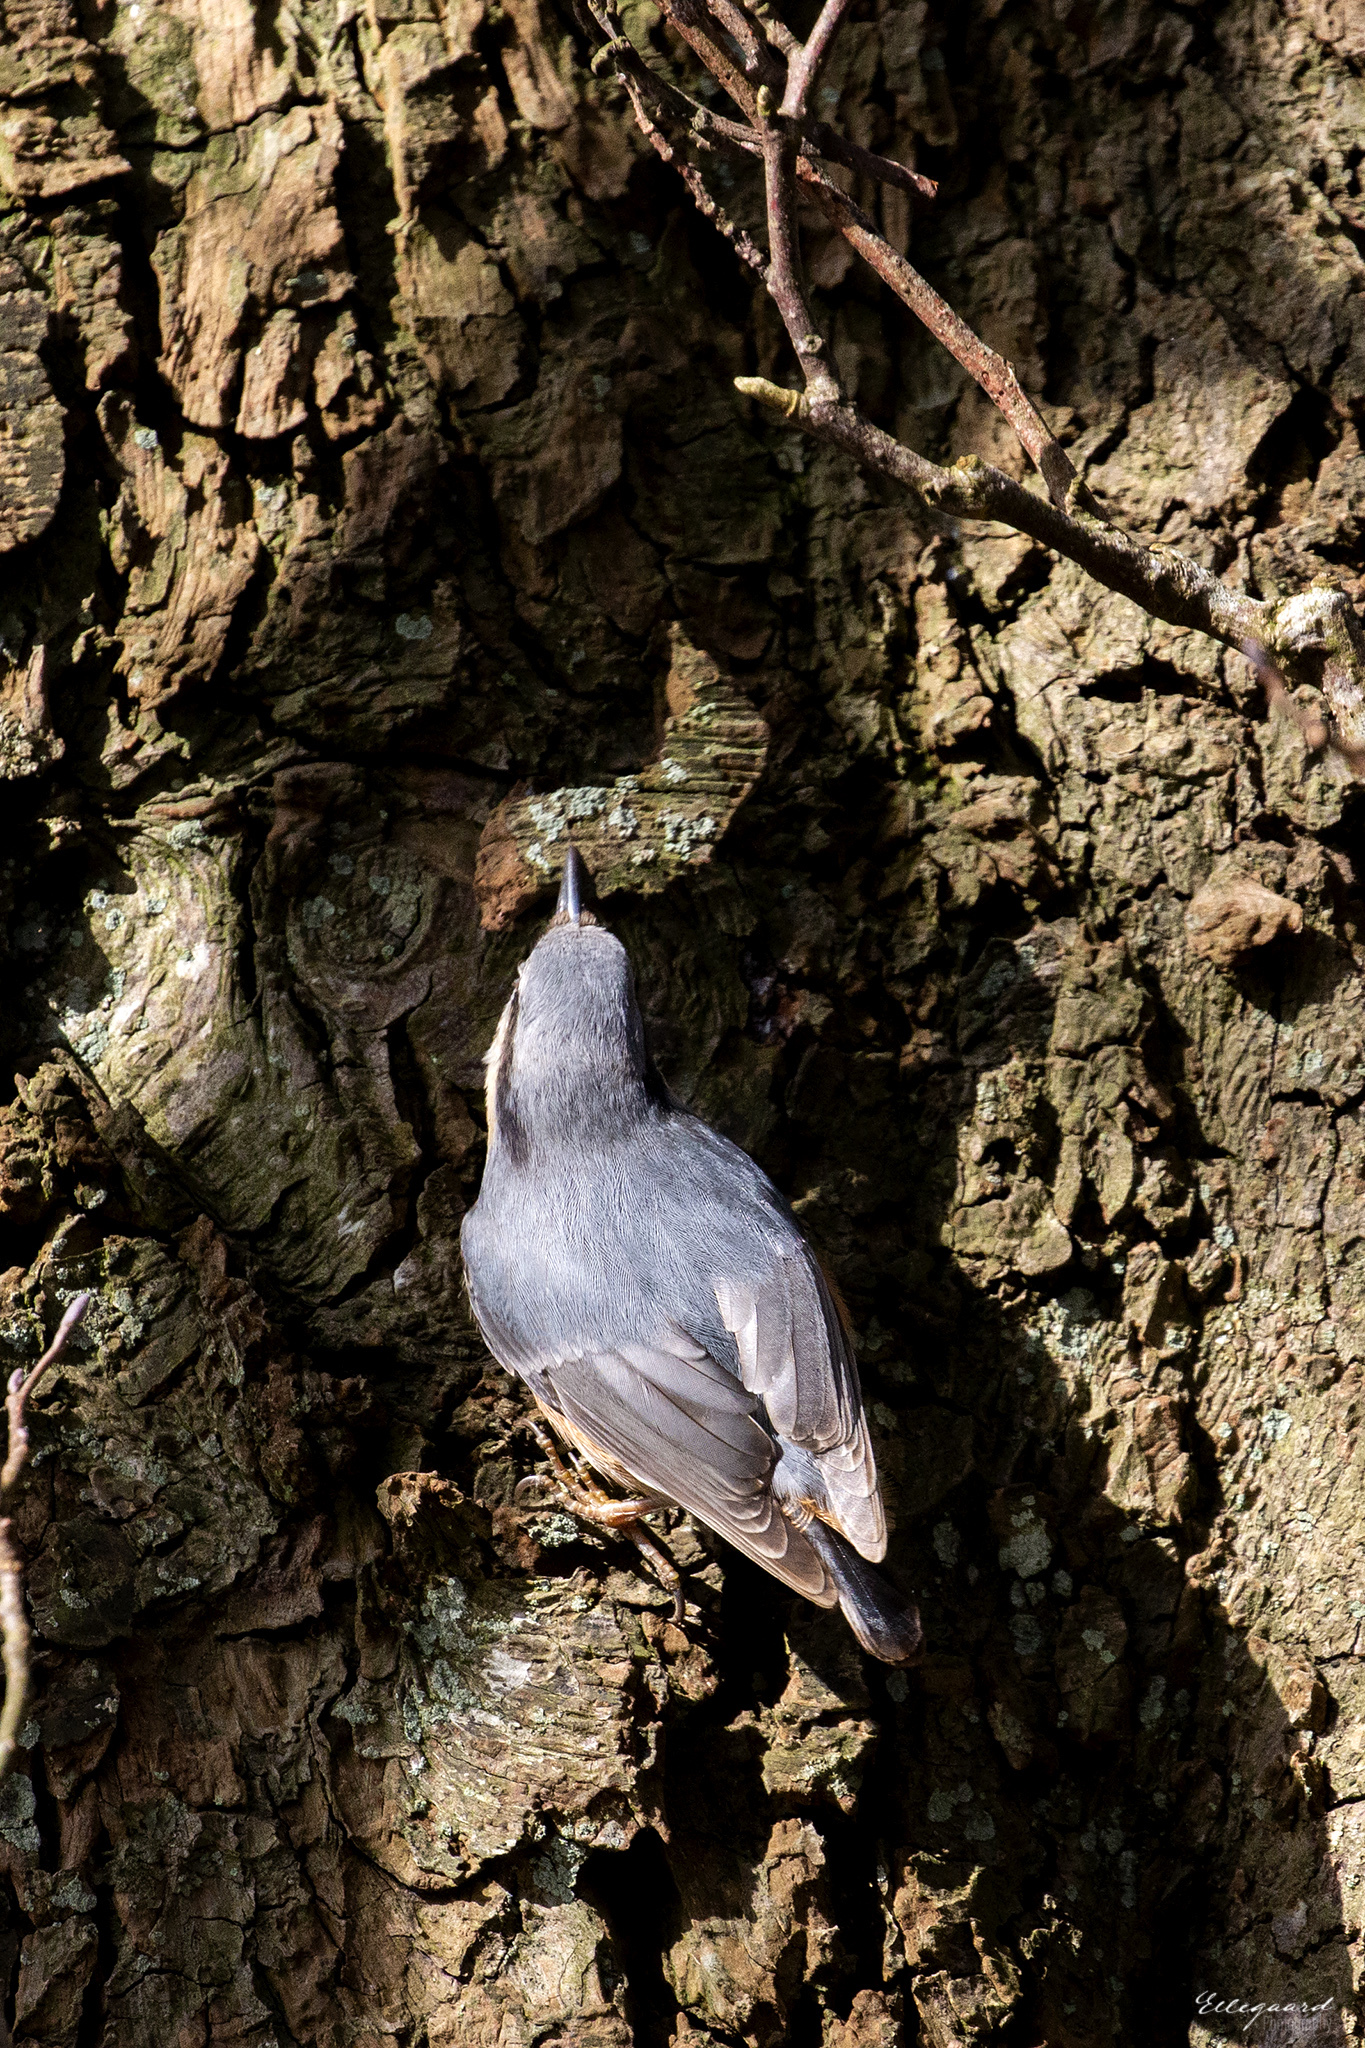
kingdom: Animalia
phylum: Chordata
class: Aves
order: Passeriformes
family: Sittidae
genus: Sitta
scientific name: Sitta europaea
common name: Eurasian nuthatch
